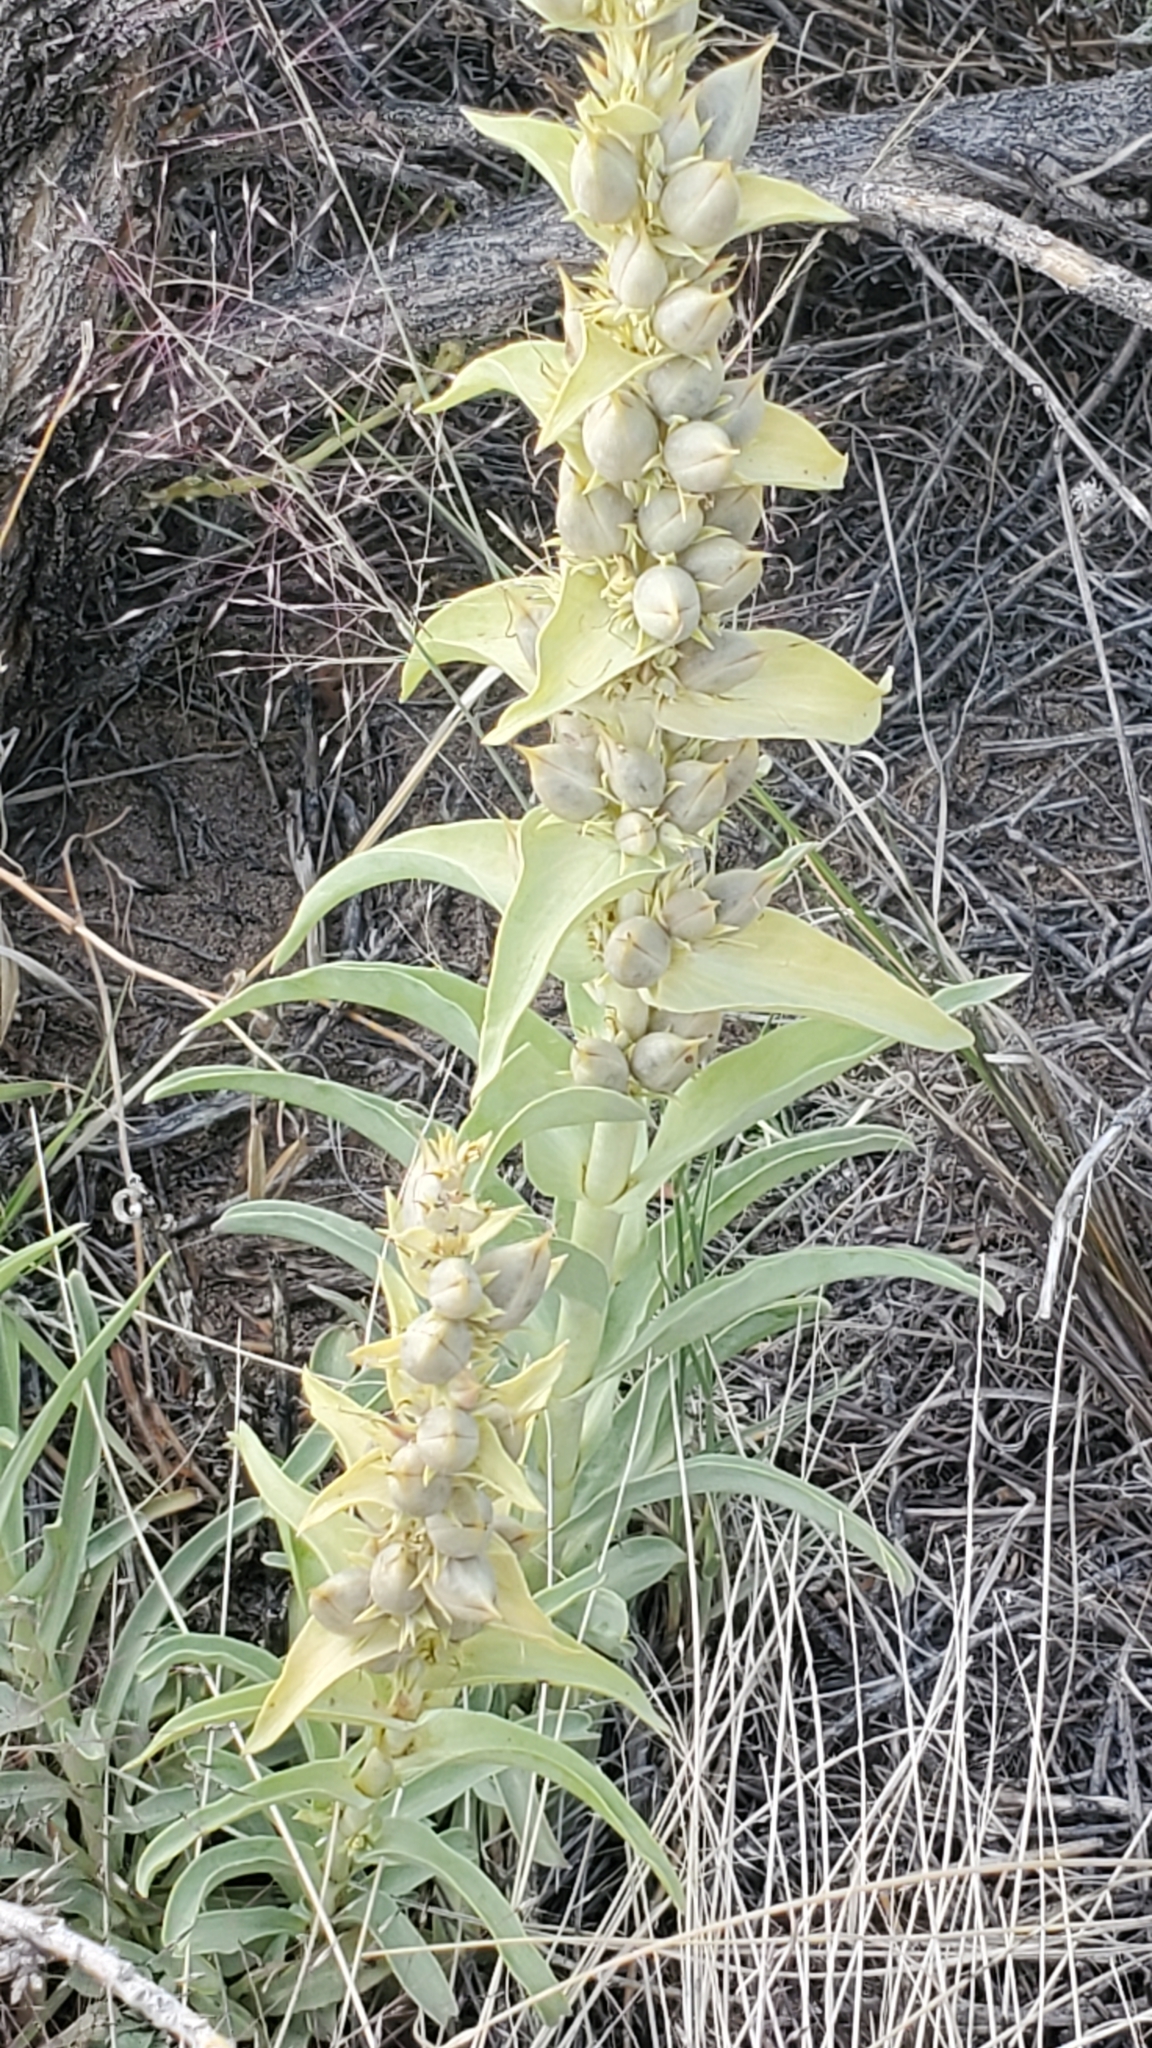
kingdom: Plantae
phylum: Tracheophyta
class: Magnoliopsida
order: Lamiales
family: Plantaginaceae
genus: Penstemon
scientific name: Penstemon angustifolius
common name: Narrow beardtongue
